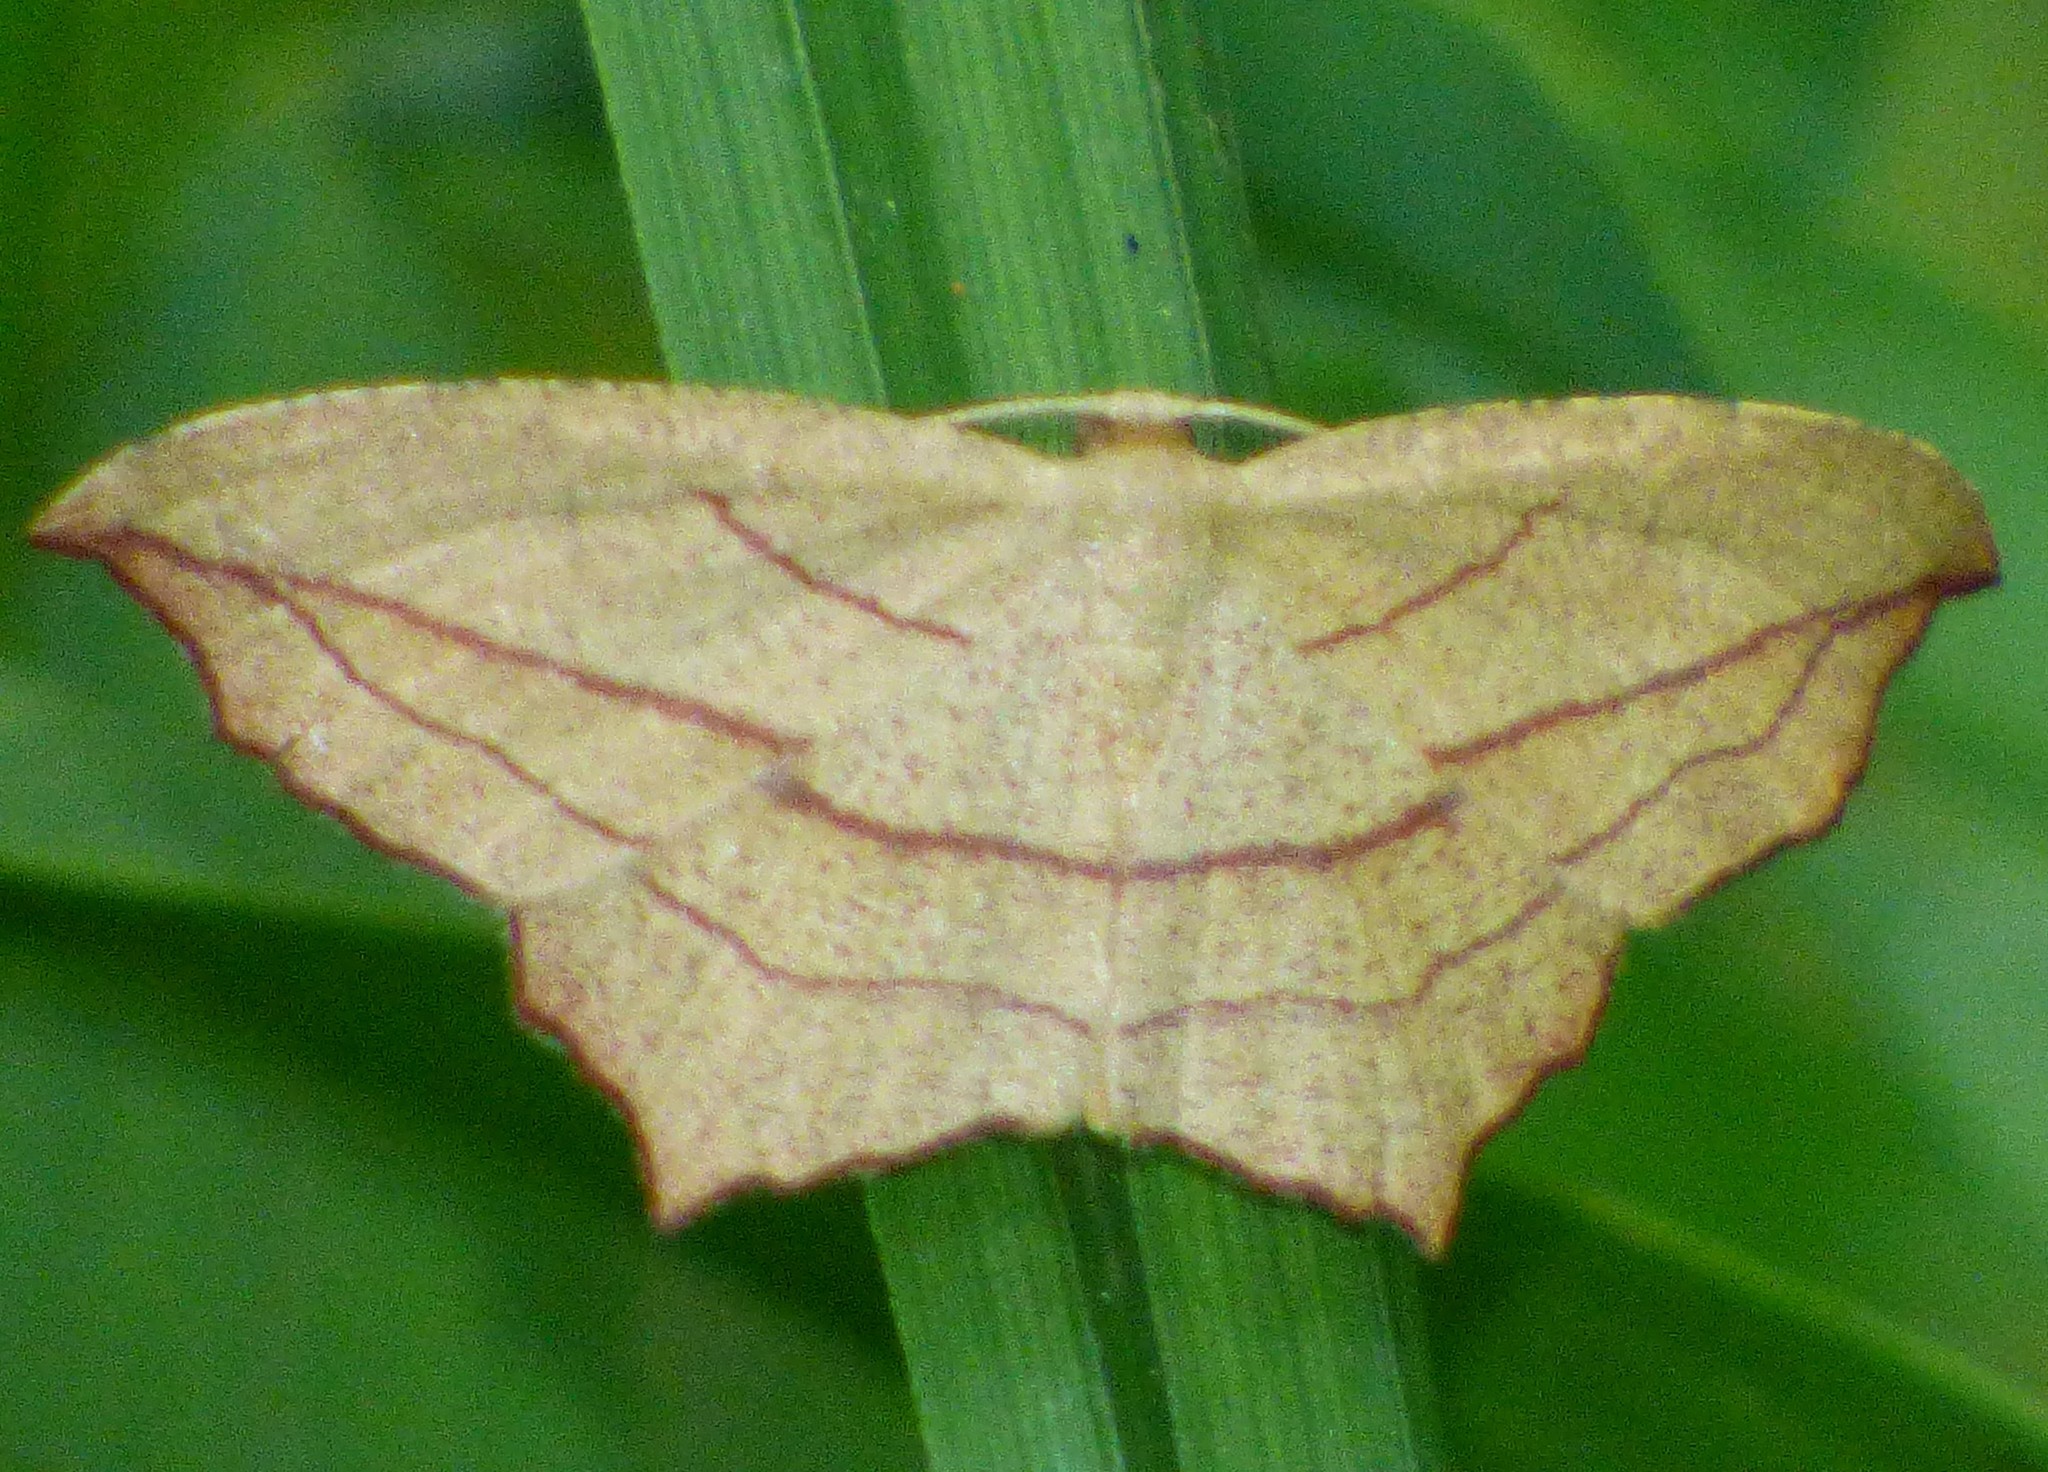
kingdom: Animalia
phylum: Arthropoda
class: Insecta
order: Lepidoptera
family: Geometridae
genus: Timandra
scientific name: Timandra amaturaria
